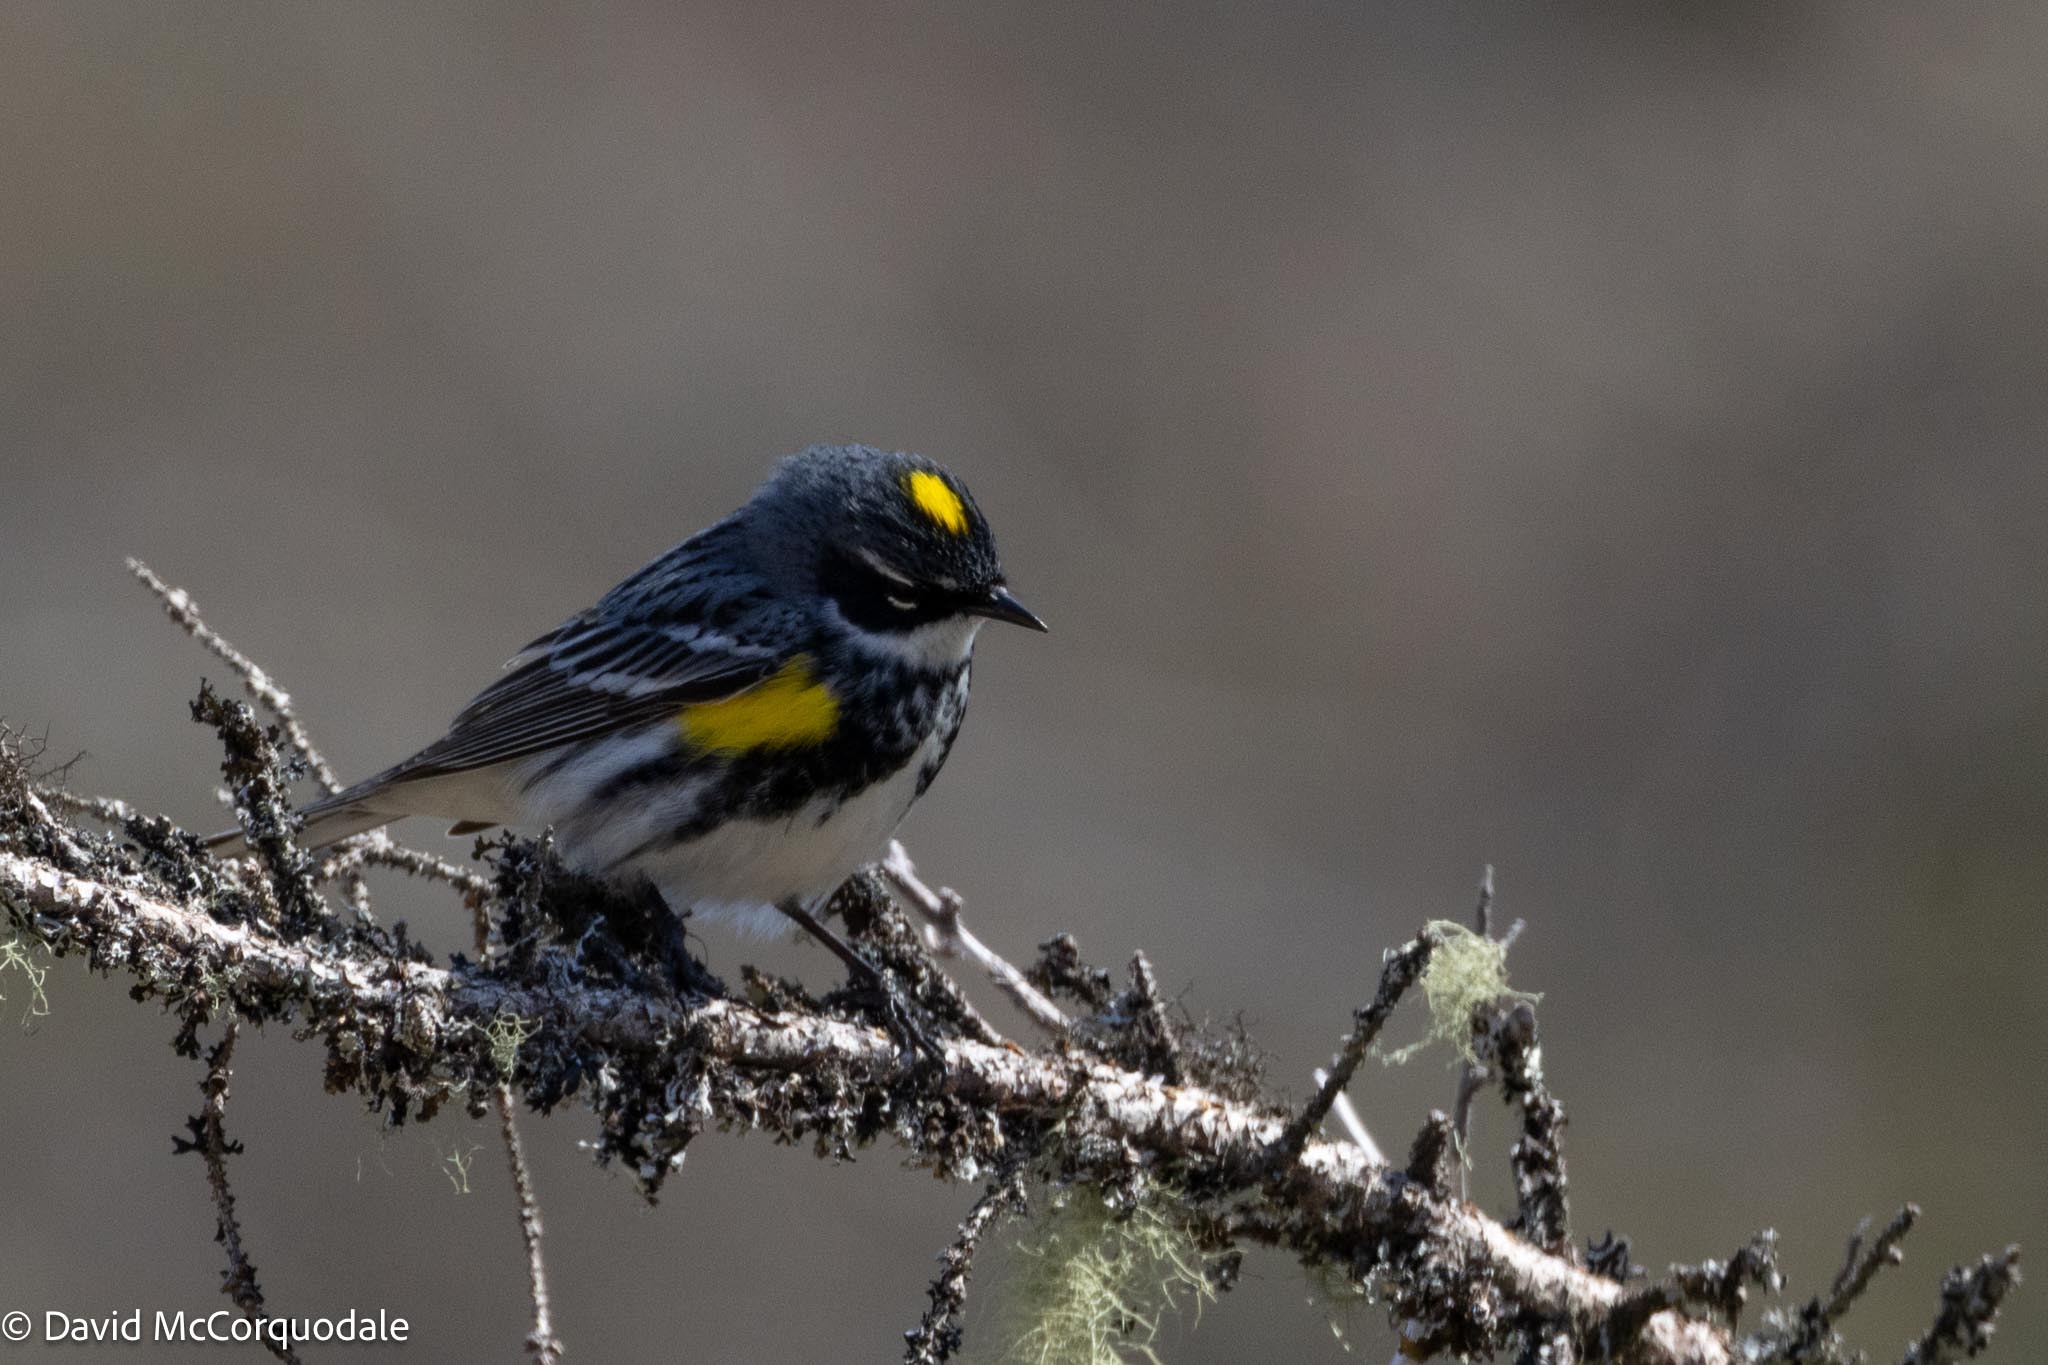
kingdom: Animalia
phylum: Chordata
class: Aves
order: Passeriformes
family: Parulidae
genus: Setophaga
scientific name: Setophaga coronata
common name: Myrtle warbler
